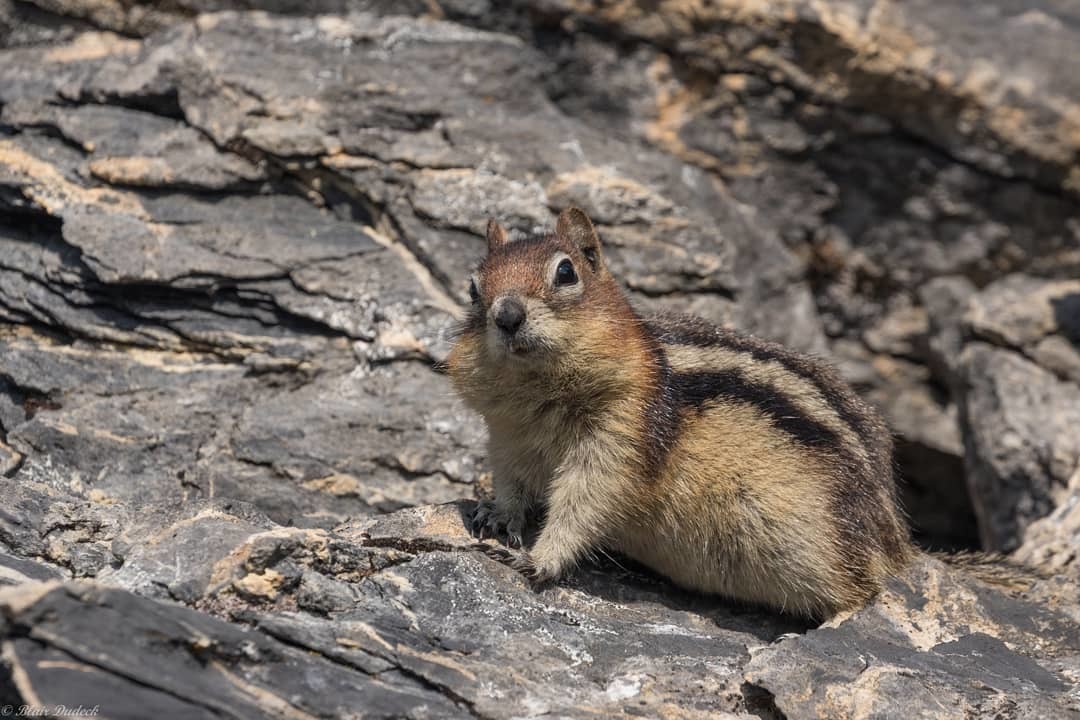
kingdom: Animalia
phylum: Chordata
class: Mammalia
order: Rodentia
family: Sciuridae
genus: Callospermophilus
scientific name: Callospermophilus lateralis
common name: Golden-mantled ground squirrel
